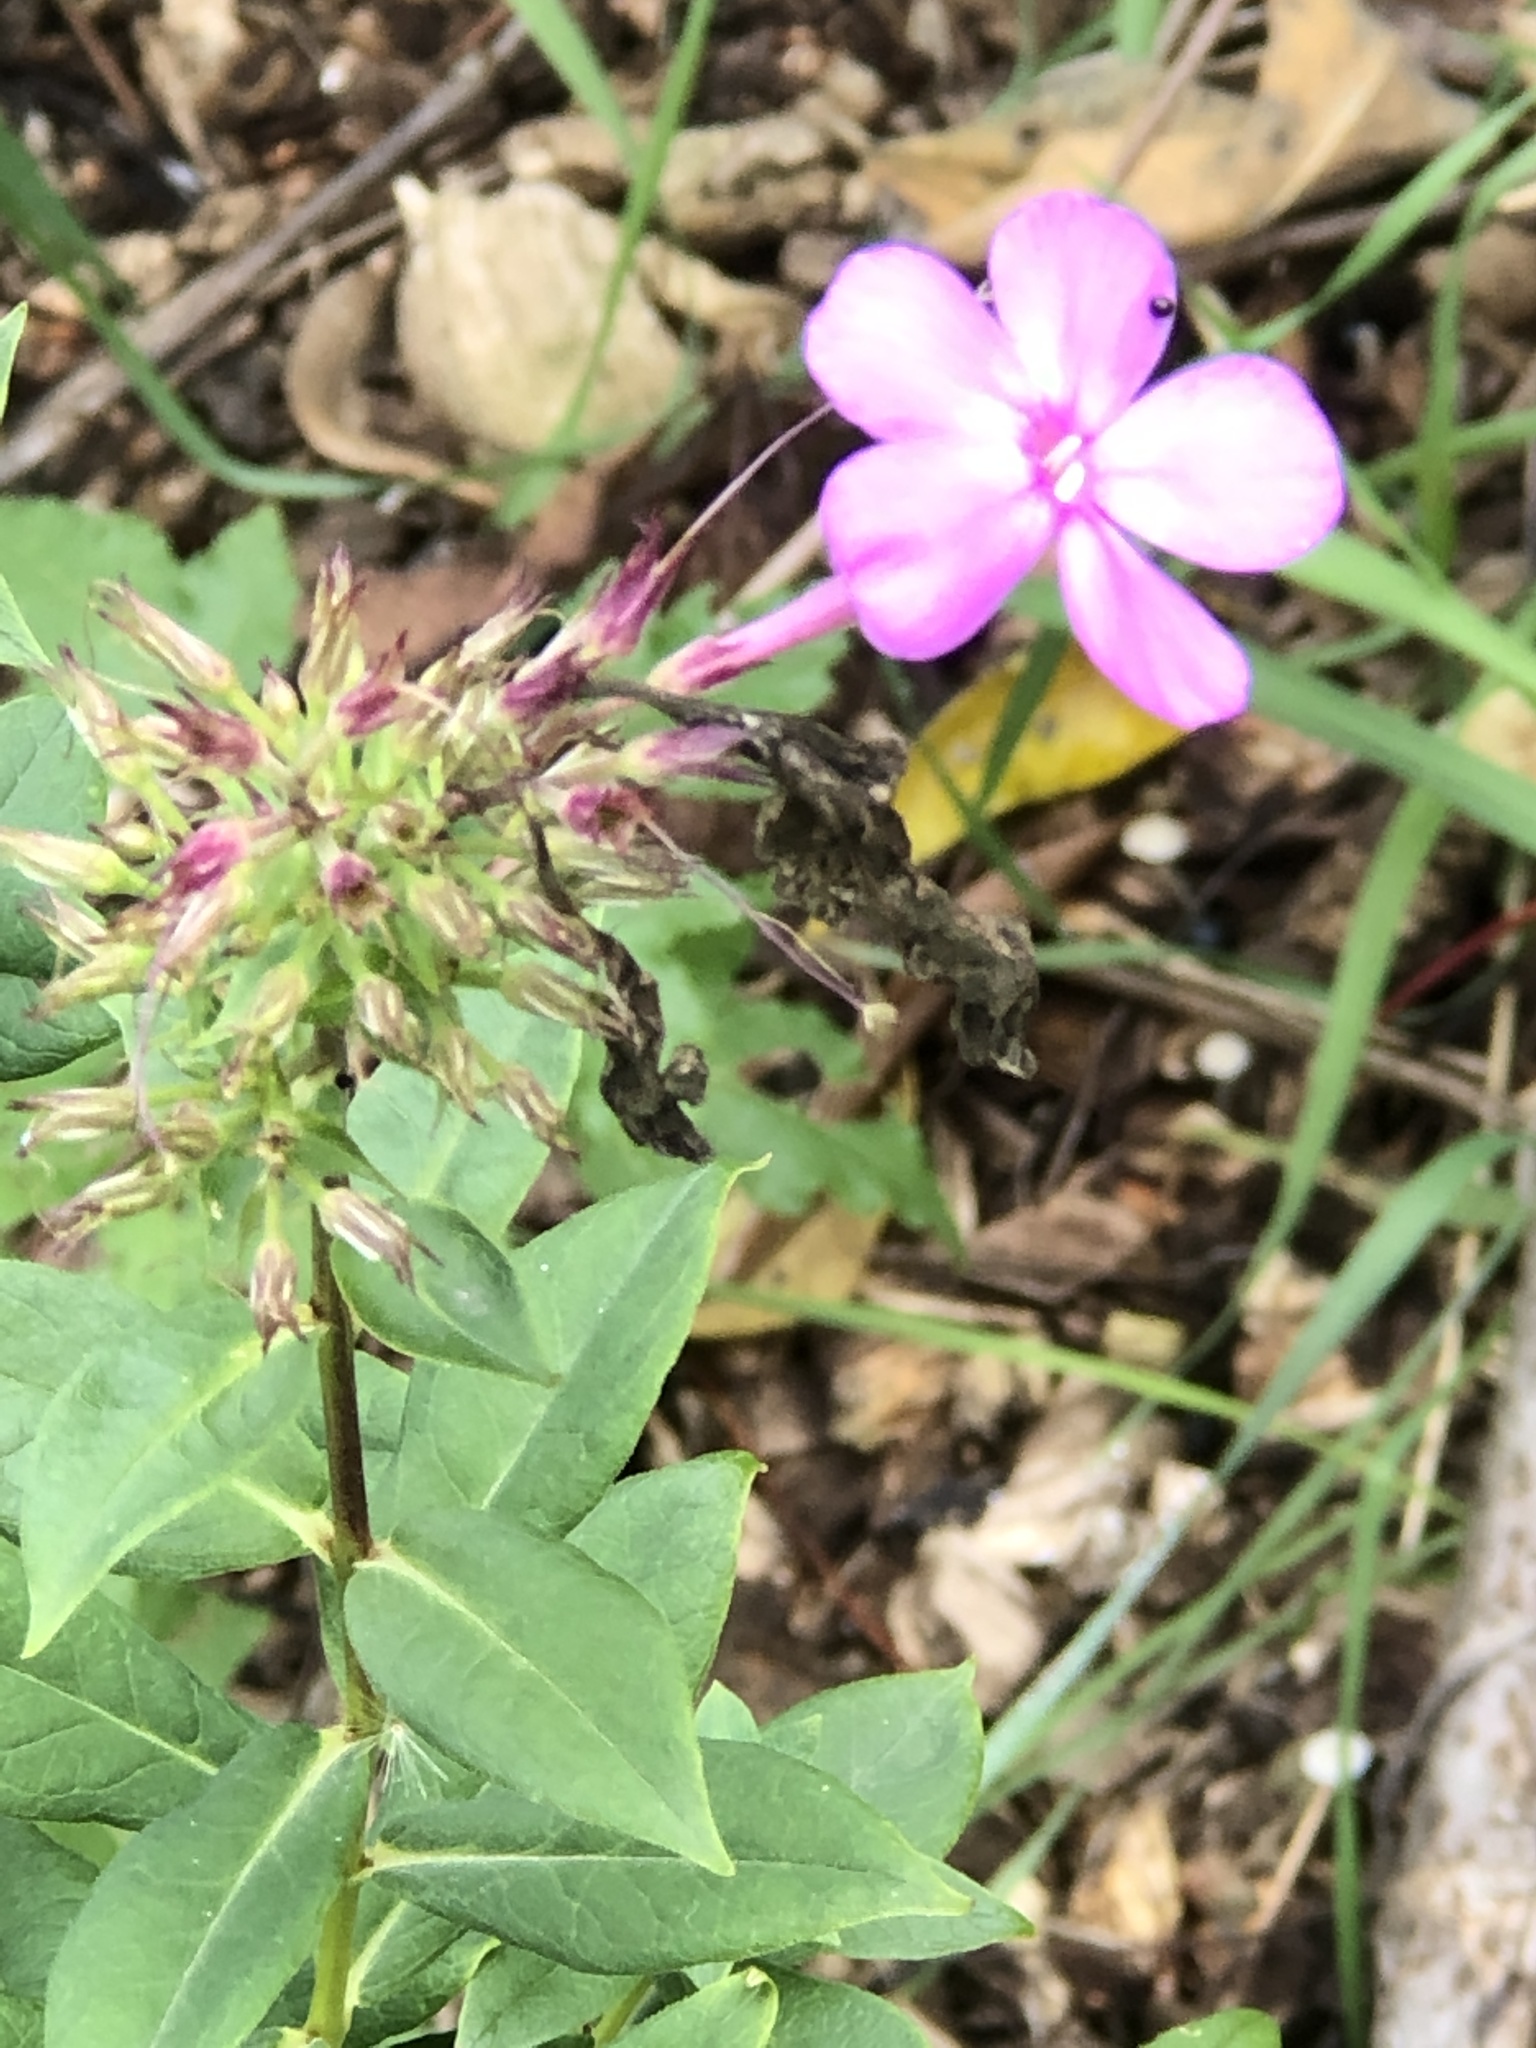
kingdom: Plantae
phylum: Tracheophyta
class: Magnoliopsida
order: Ericales
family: Polemoniaceae
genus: Phlox
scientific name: Phlox paniculata
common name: Fall phlox
